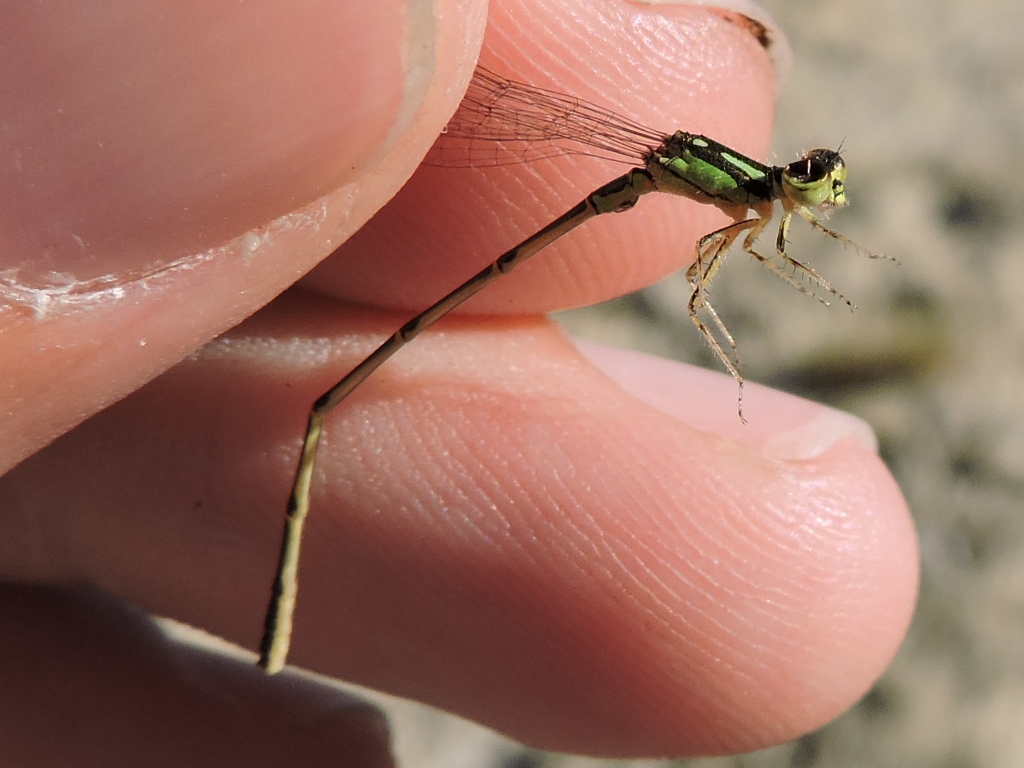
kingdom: Animalia
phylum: Arthropoda
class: Insecta
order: Odonata
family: Coenagrionidae
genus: Ischnura
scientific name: Ischnura posita
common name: Fragile forktail
